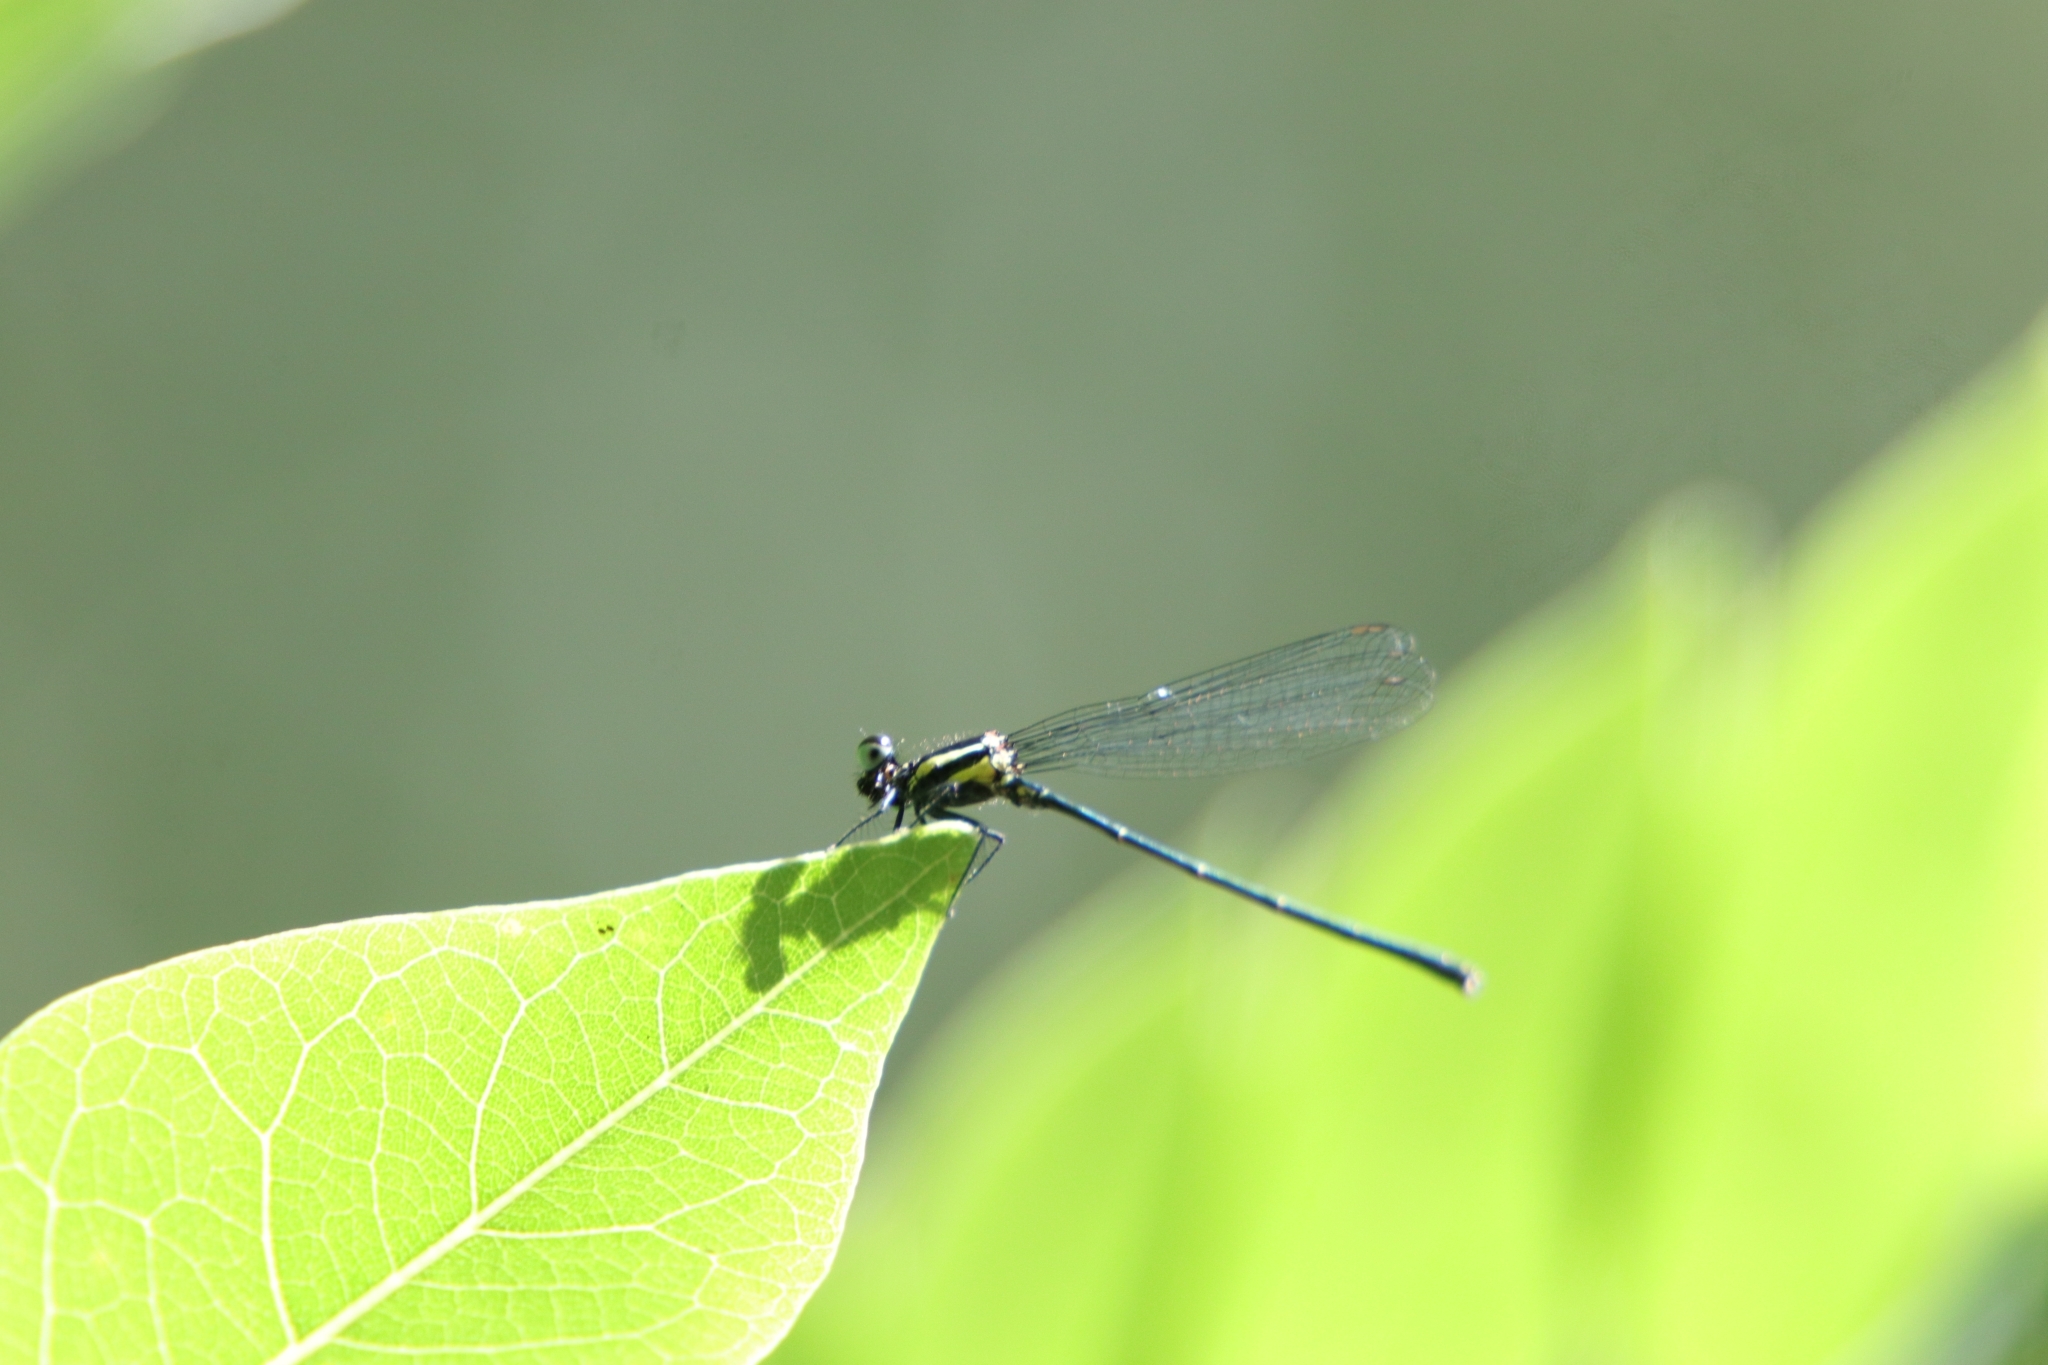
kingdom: Animalia
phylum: Arthropoda
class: Insecta
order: Odonata
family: Platycnemididae
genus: Onychargia
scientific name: Onychargia atrocyana
